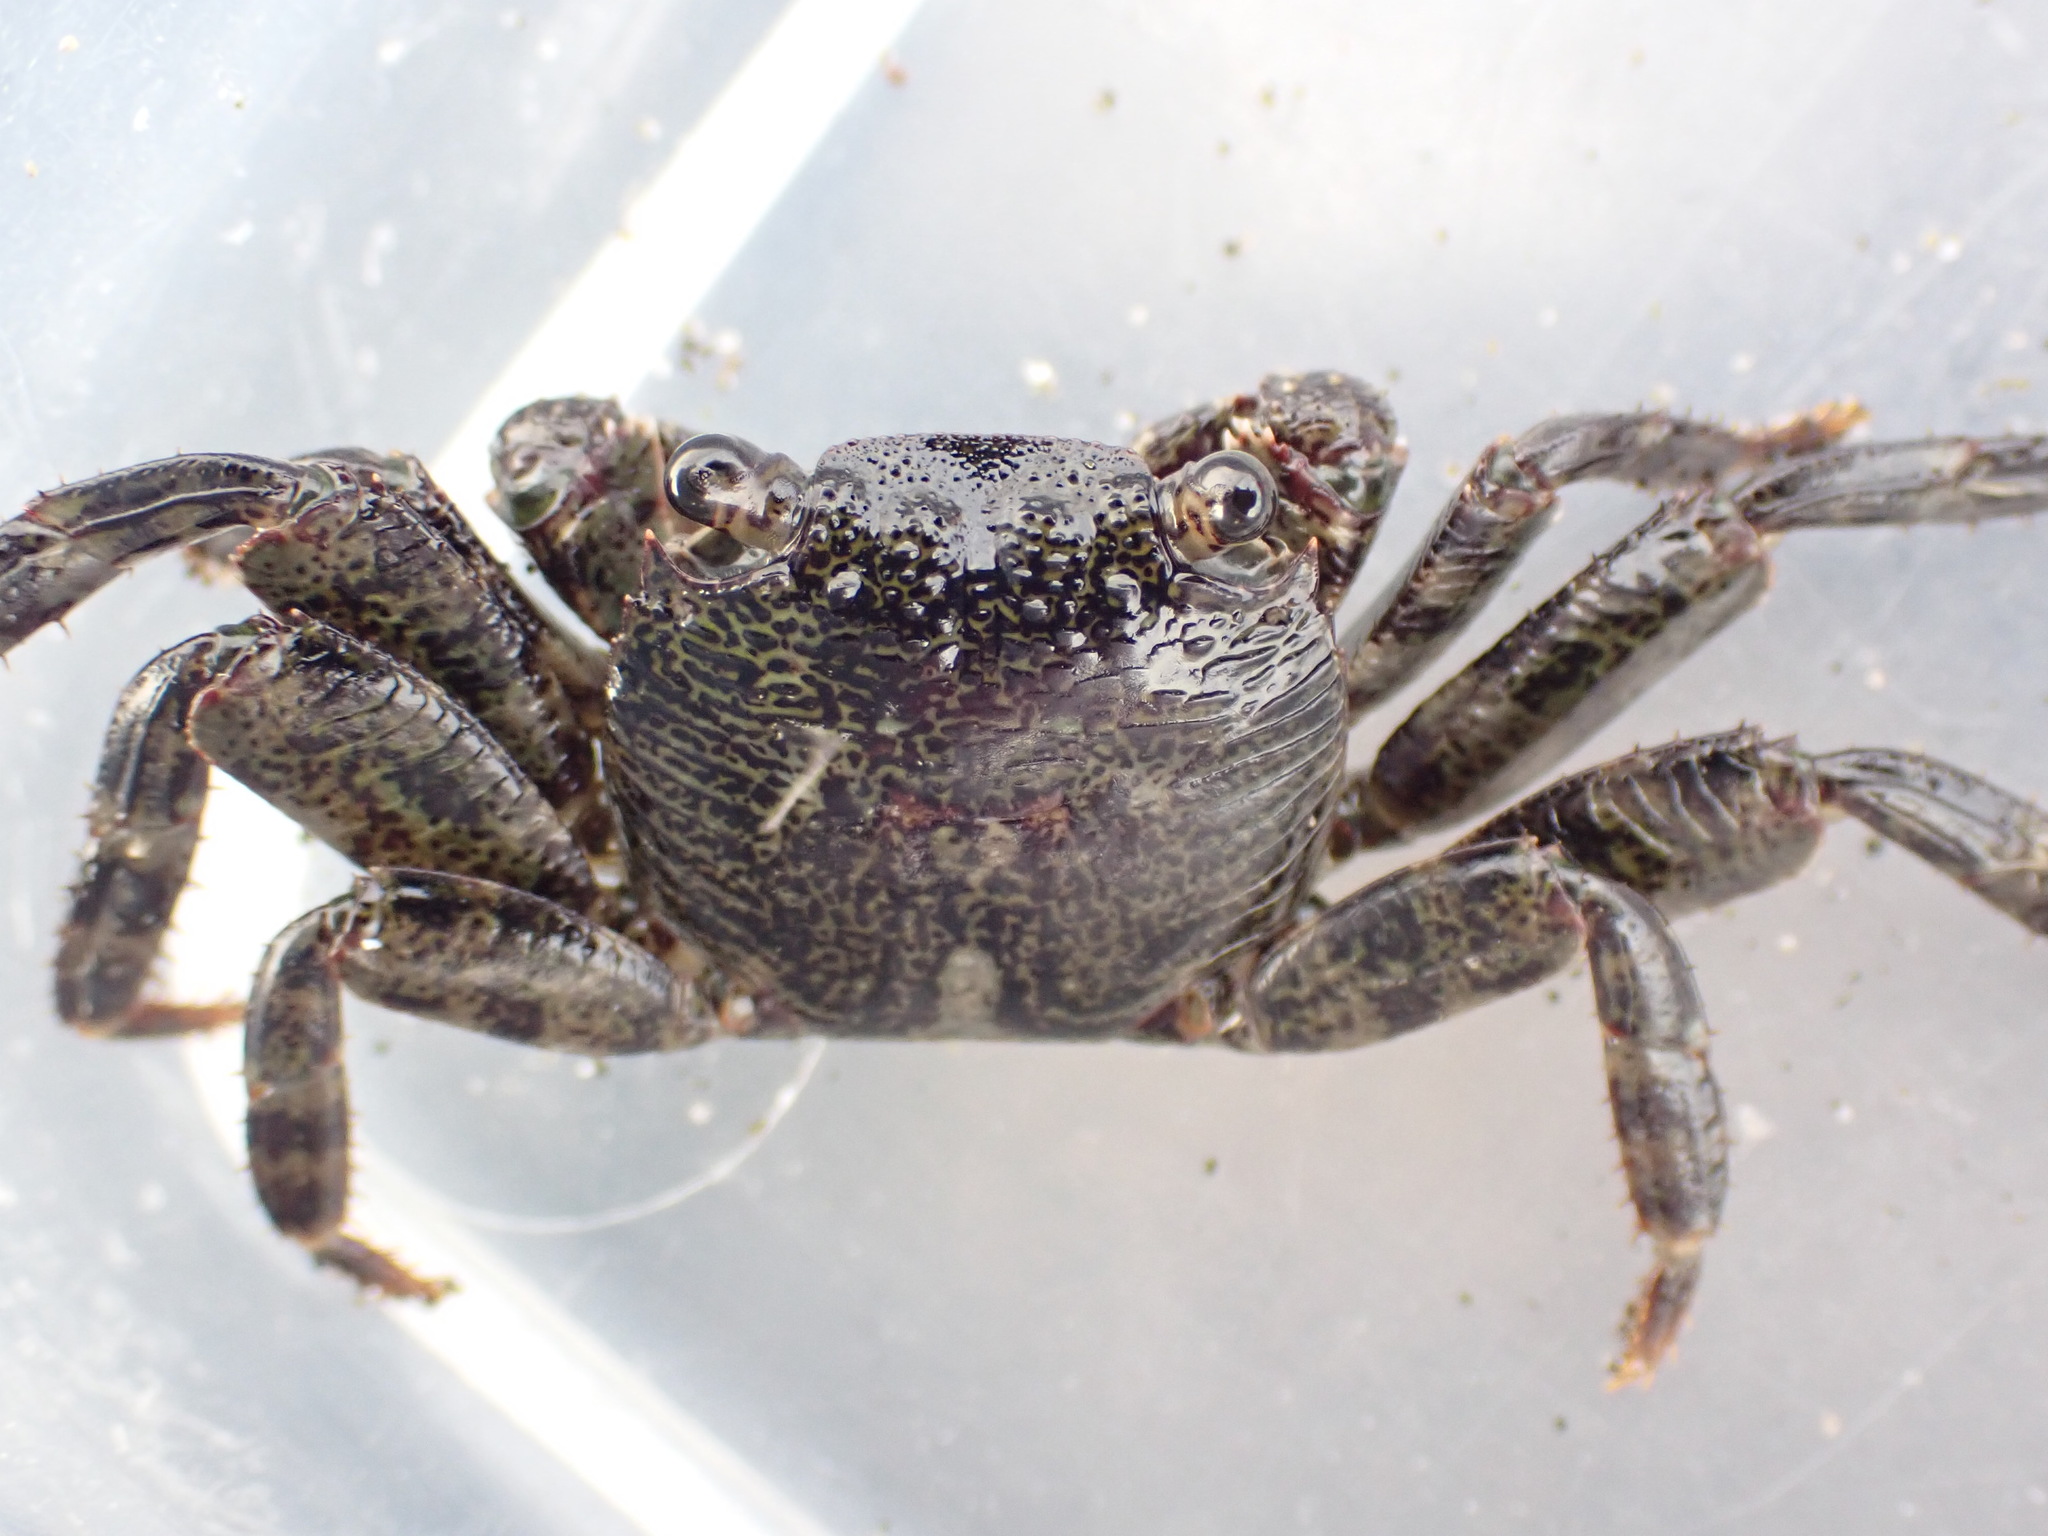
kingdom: Animalia
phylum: Arthropoda
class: Malacostraca
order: Decapoda
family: Grapsidae
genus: Leptograpsus
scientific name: Leptograpsus variegatus
